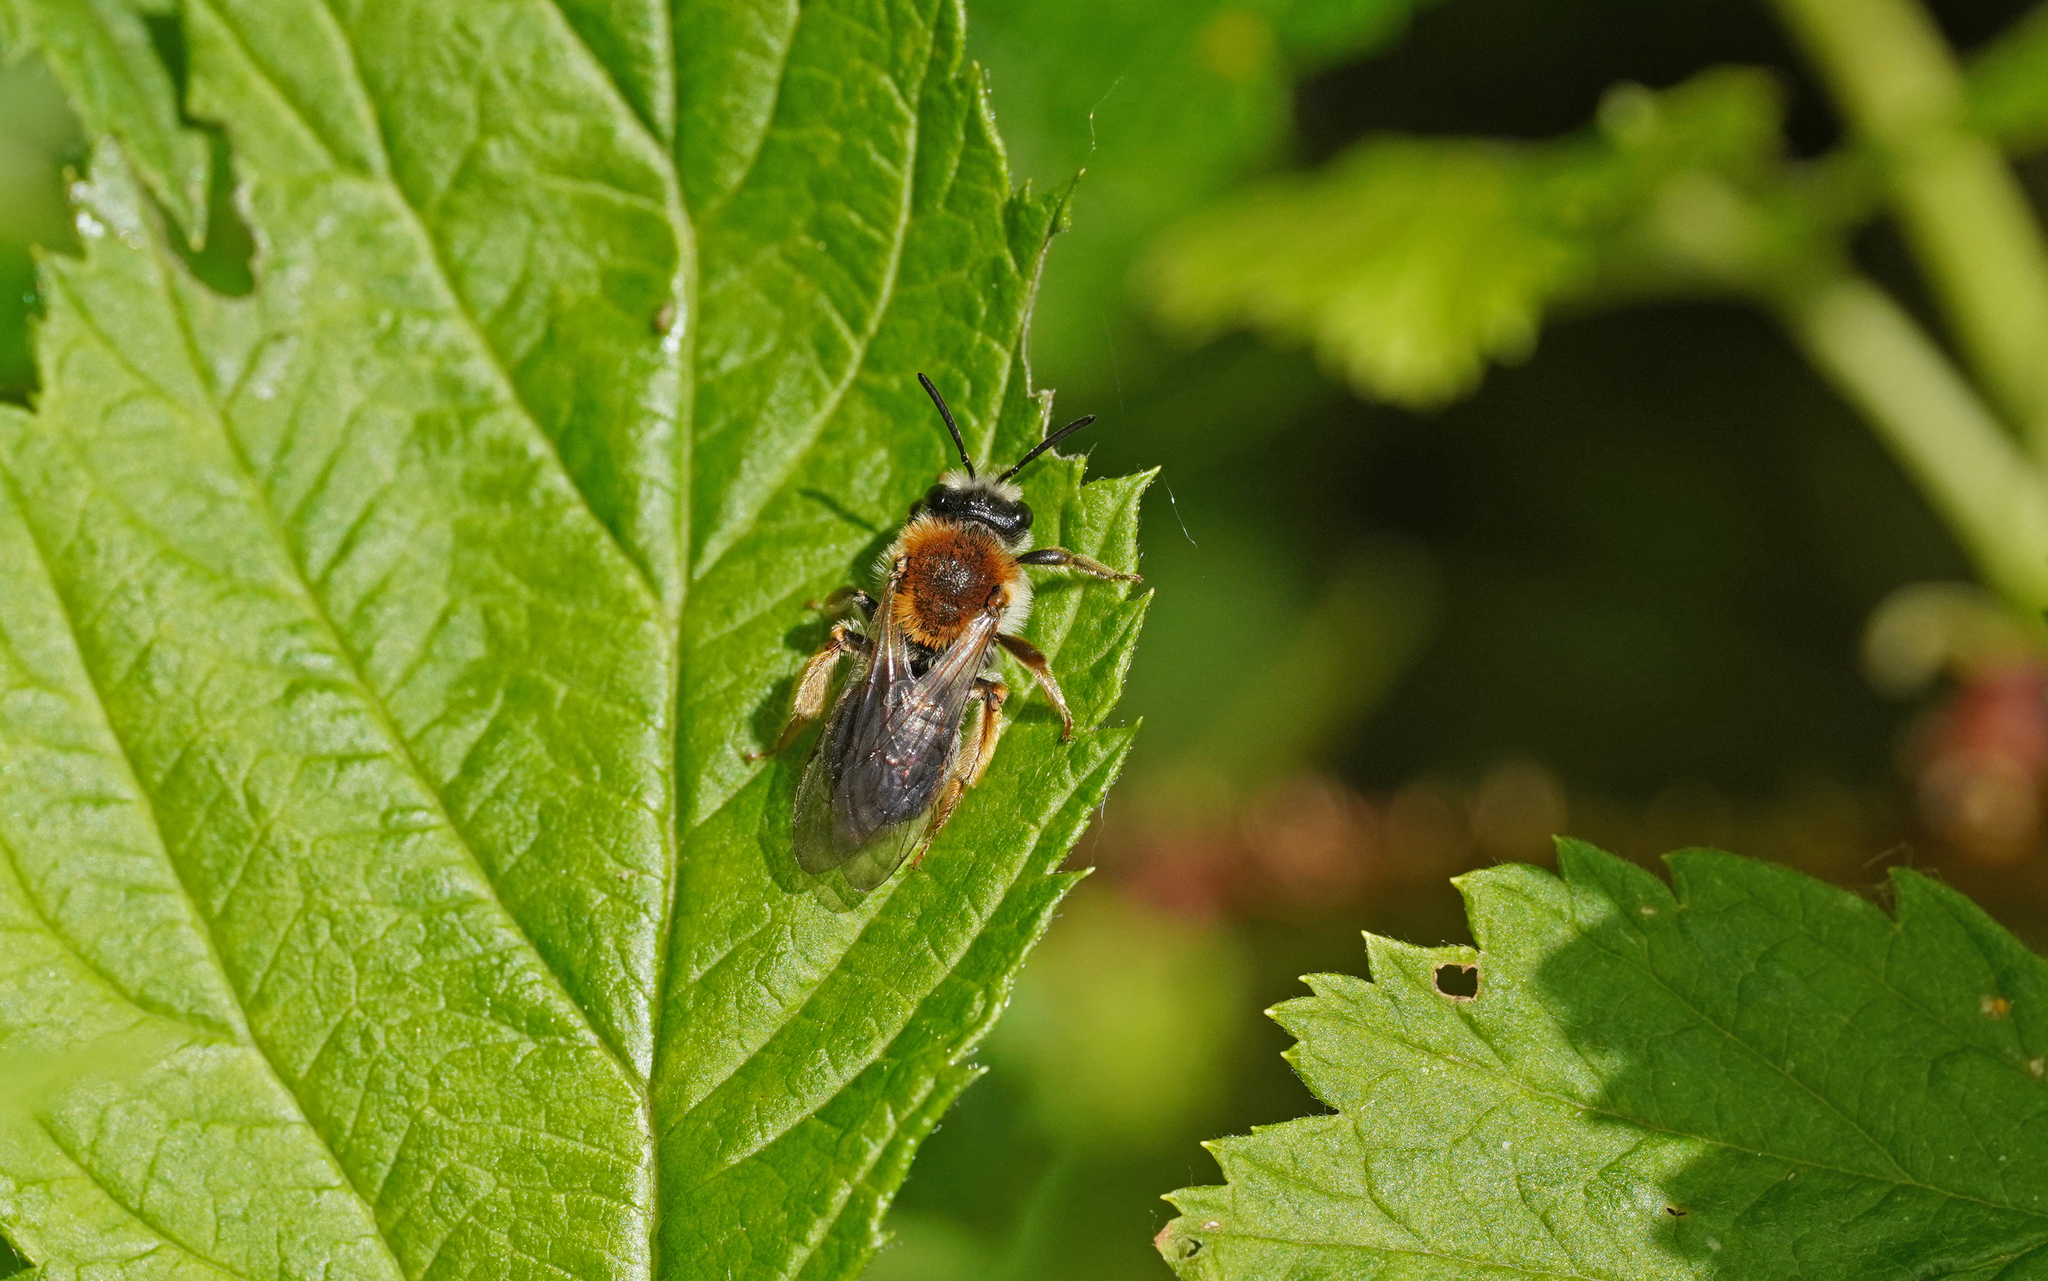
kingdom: Animalia
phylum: Arthropoda
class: Insecta
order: Hymenoptera
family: Andrenidae
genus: Andrena
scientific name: Andrena haemorrhoa
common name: Early mining bee
